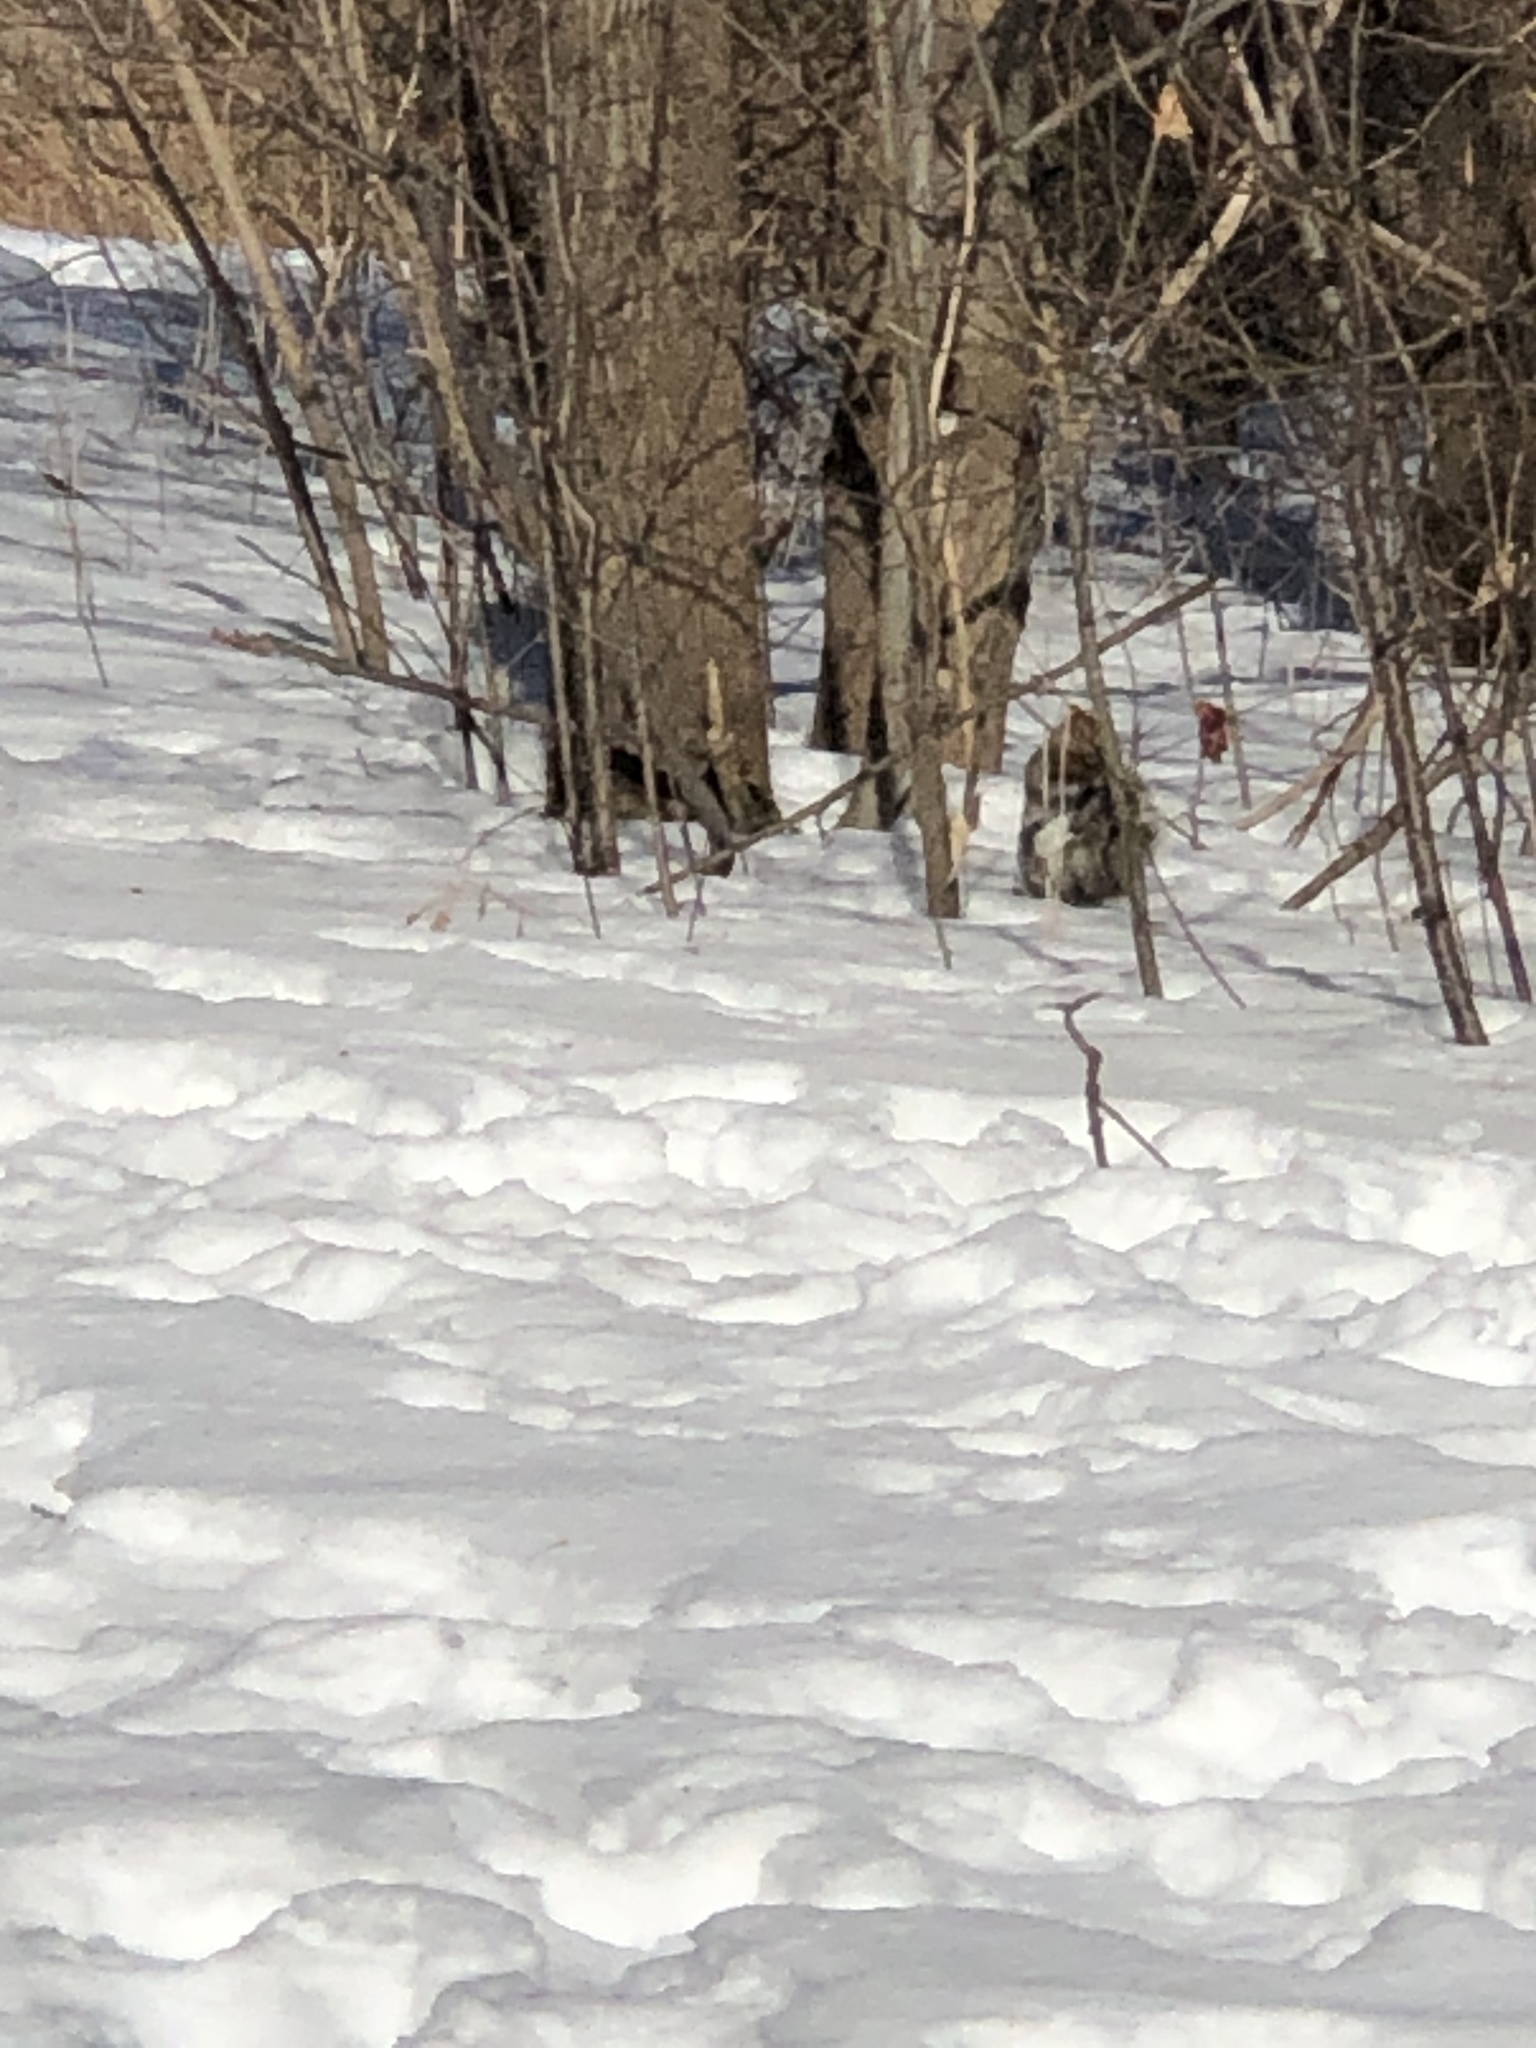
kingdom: Animalia
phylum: Chordata
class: Mammalia
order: Rodentia
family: Sciuridae
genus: Sciurus
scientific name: Sciurus carolinensis
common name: Eastern gray squirrel
